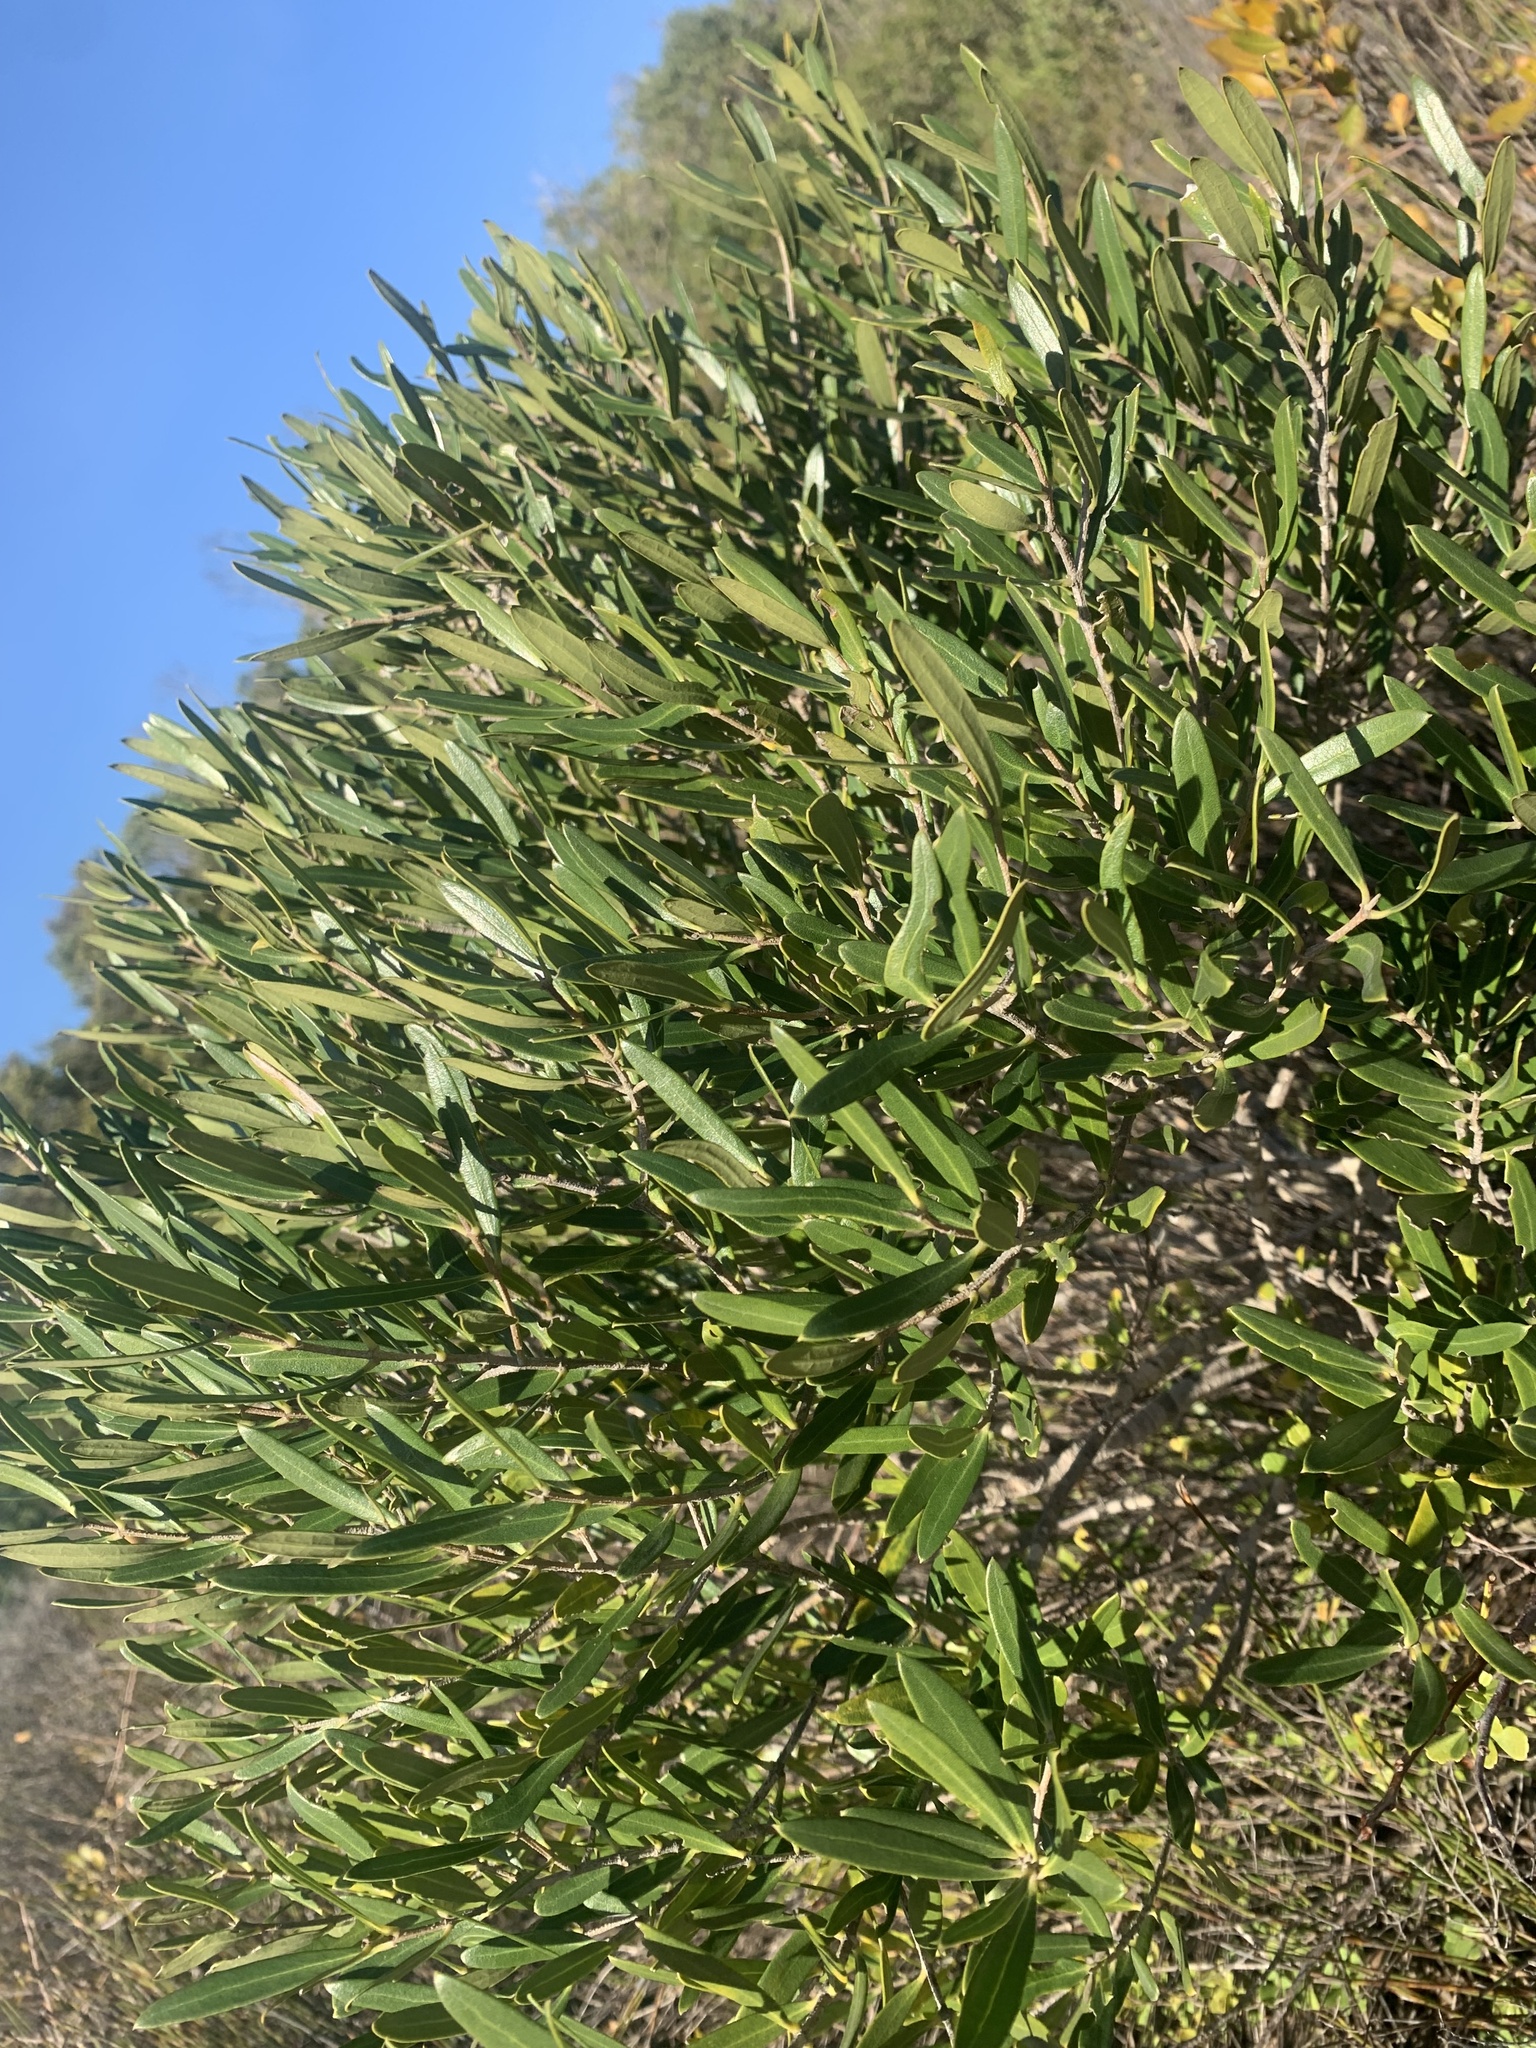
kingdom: Plantae
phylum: Tracheophyta
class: Magnoliopsida
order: Lamiales
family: Oleaceae
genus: Olea
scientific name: Olea exasperata
